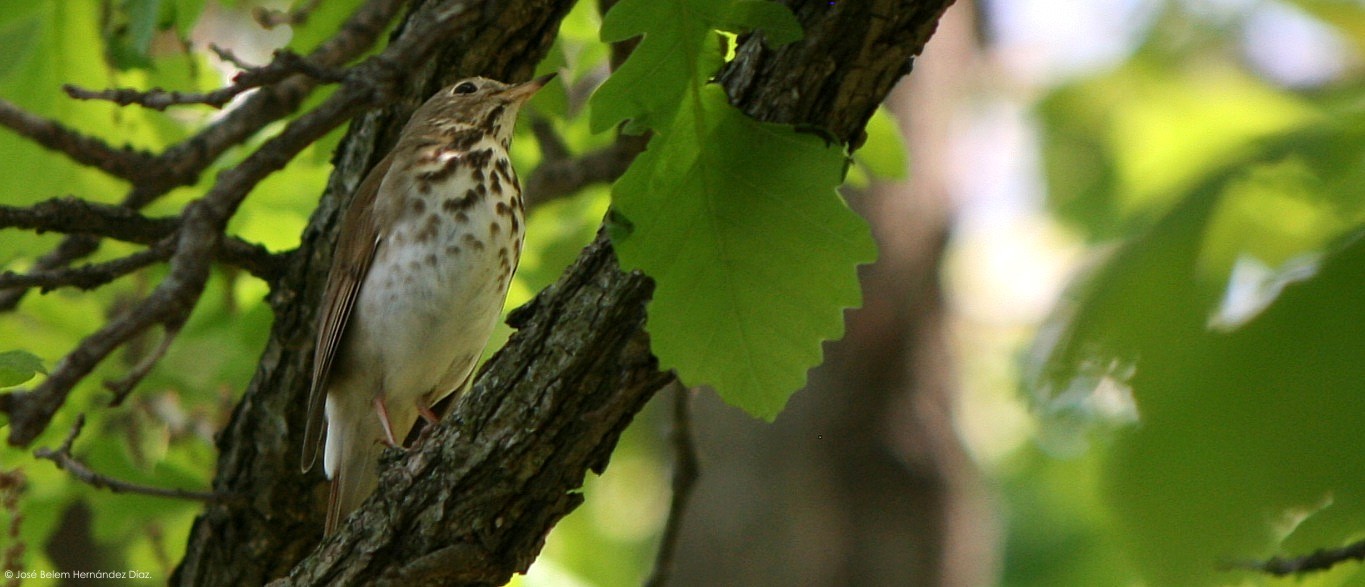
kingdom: Animalia
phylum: Chordata
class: Aves
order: Passeriformes
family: Turdidae
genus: Catharus
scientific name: Catharus ustulatus
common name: Swainson's thrush
